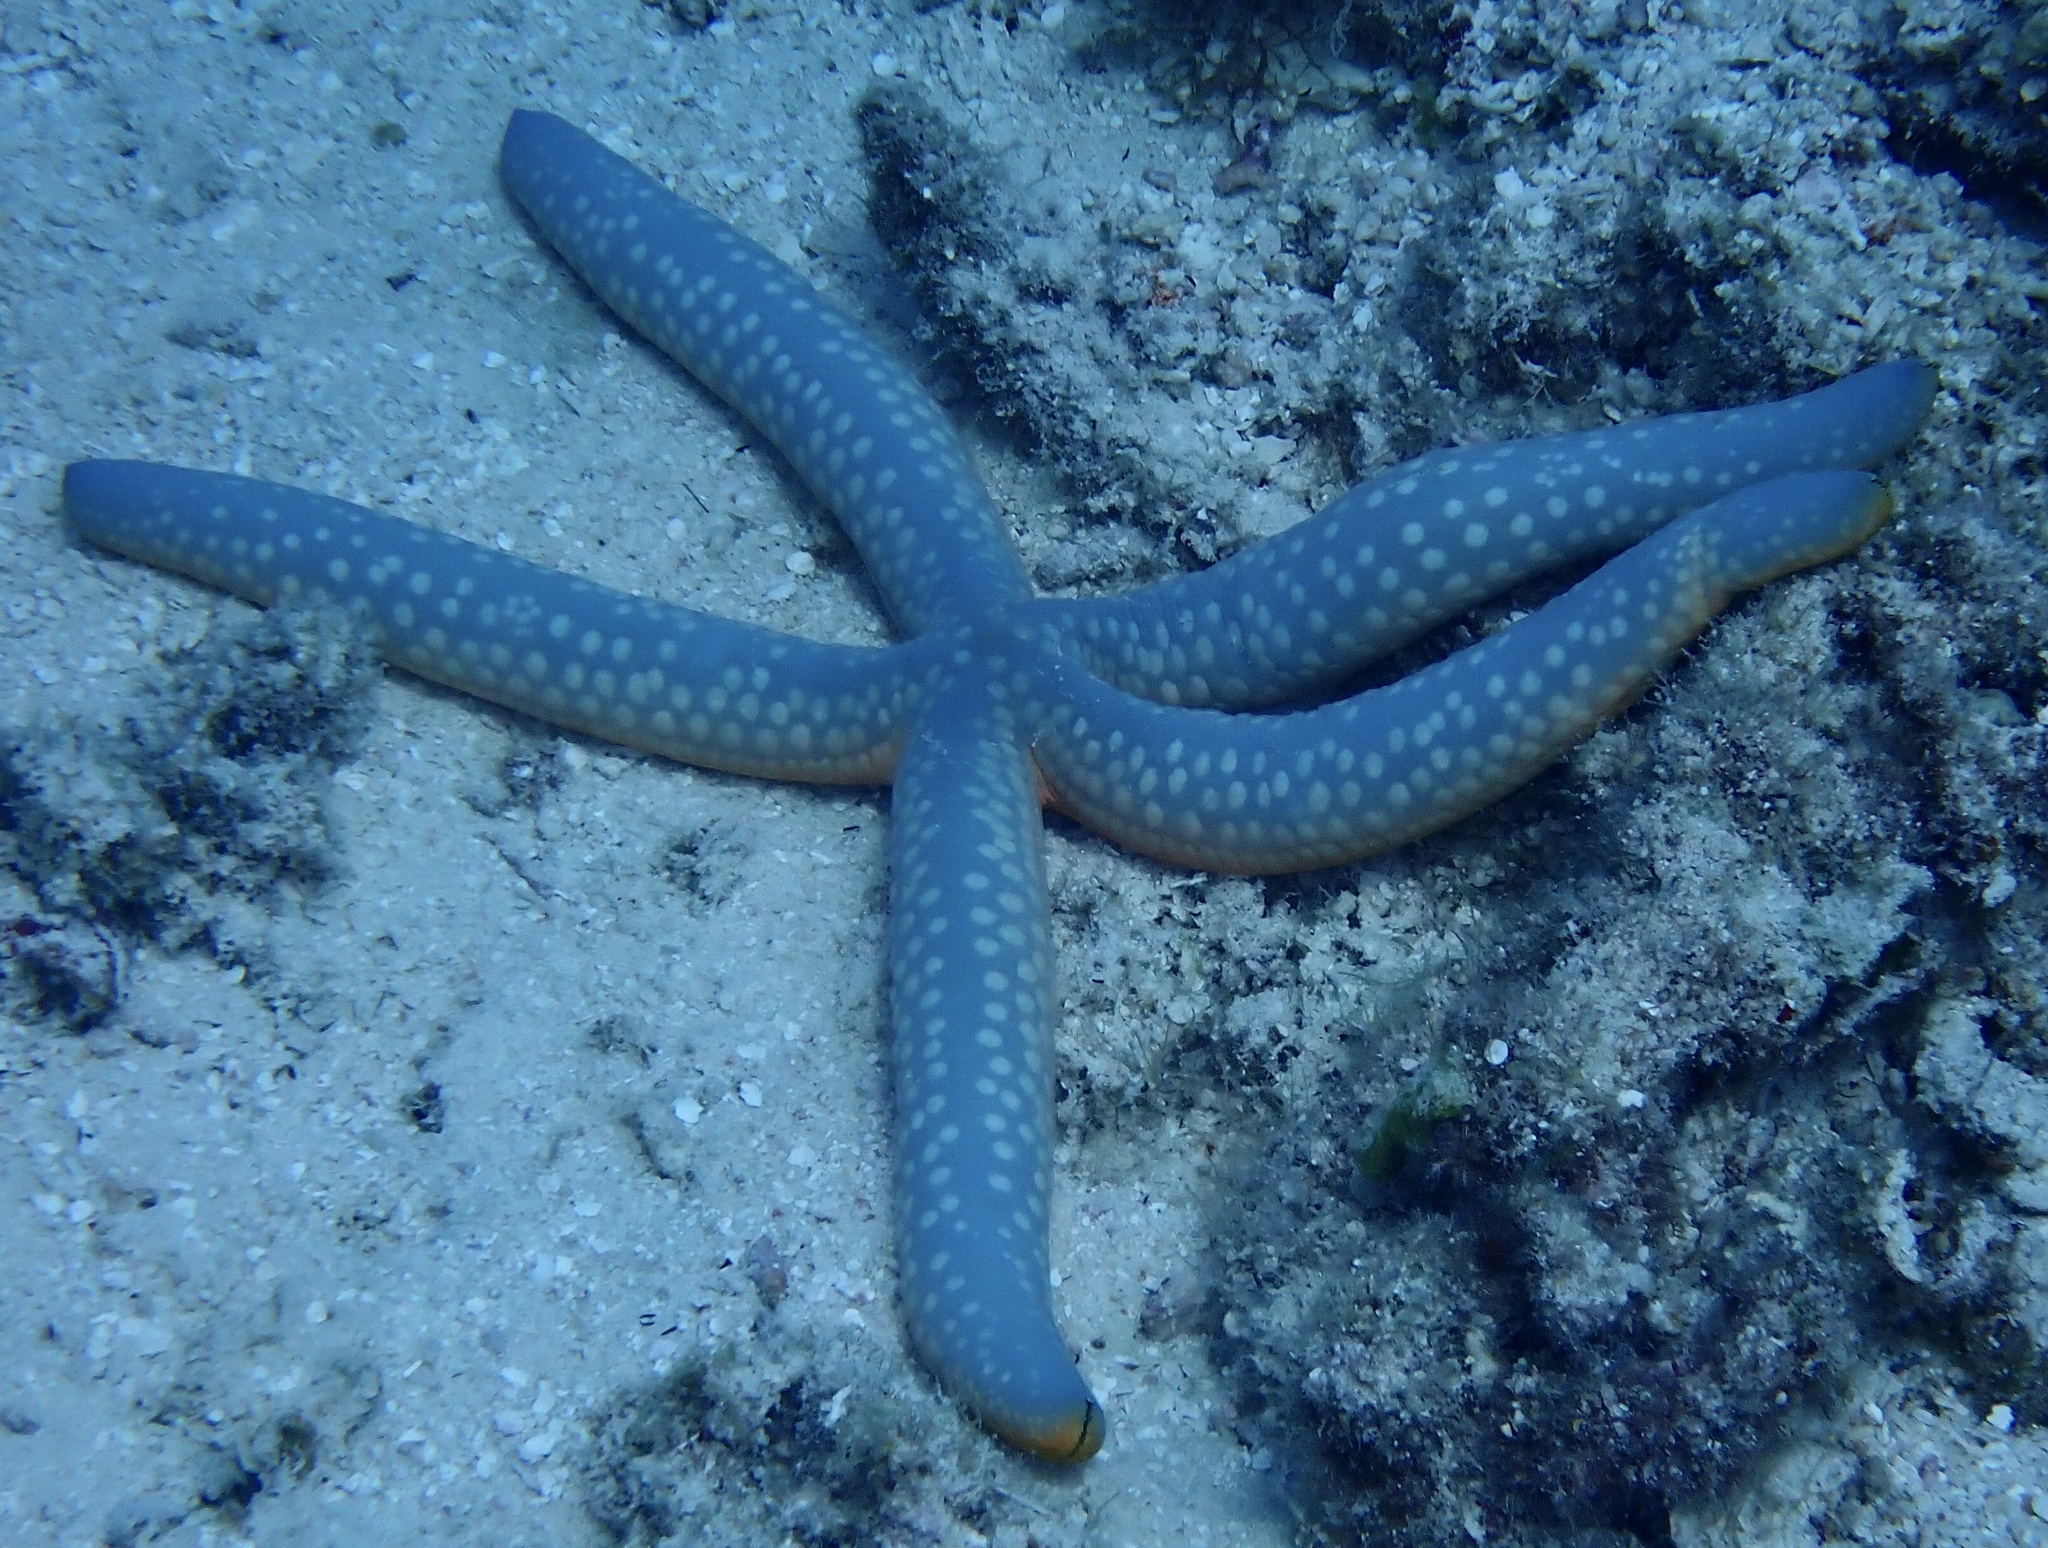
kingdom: Animalia
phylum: Echinodermata
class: Asteroidea
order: Valvatida
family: Ophidiasteridae
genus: Linckia
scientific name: Linckia laevigata
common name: Azure sea star
